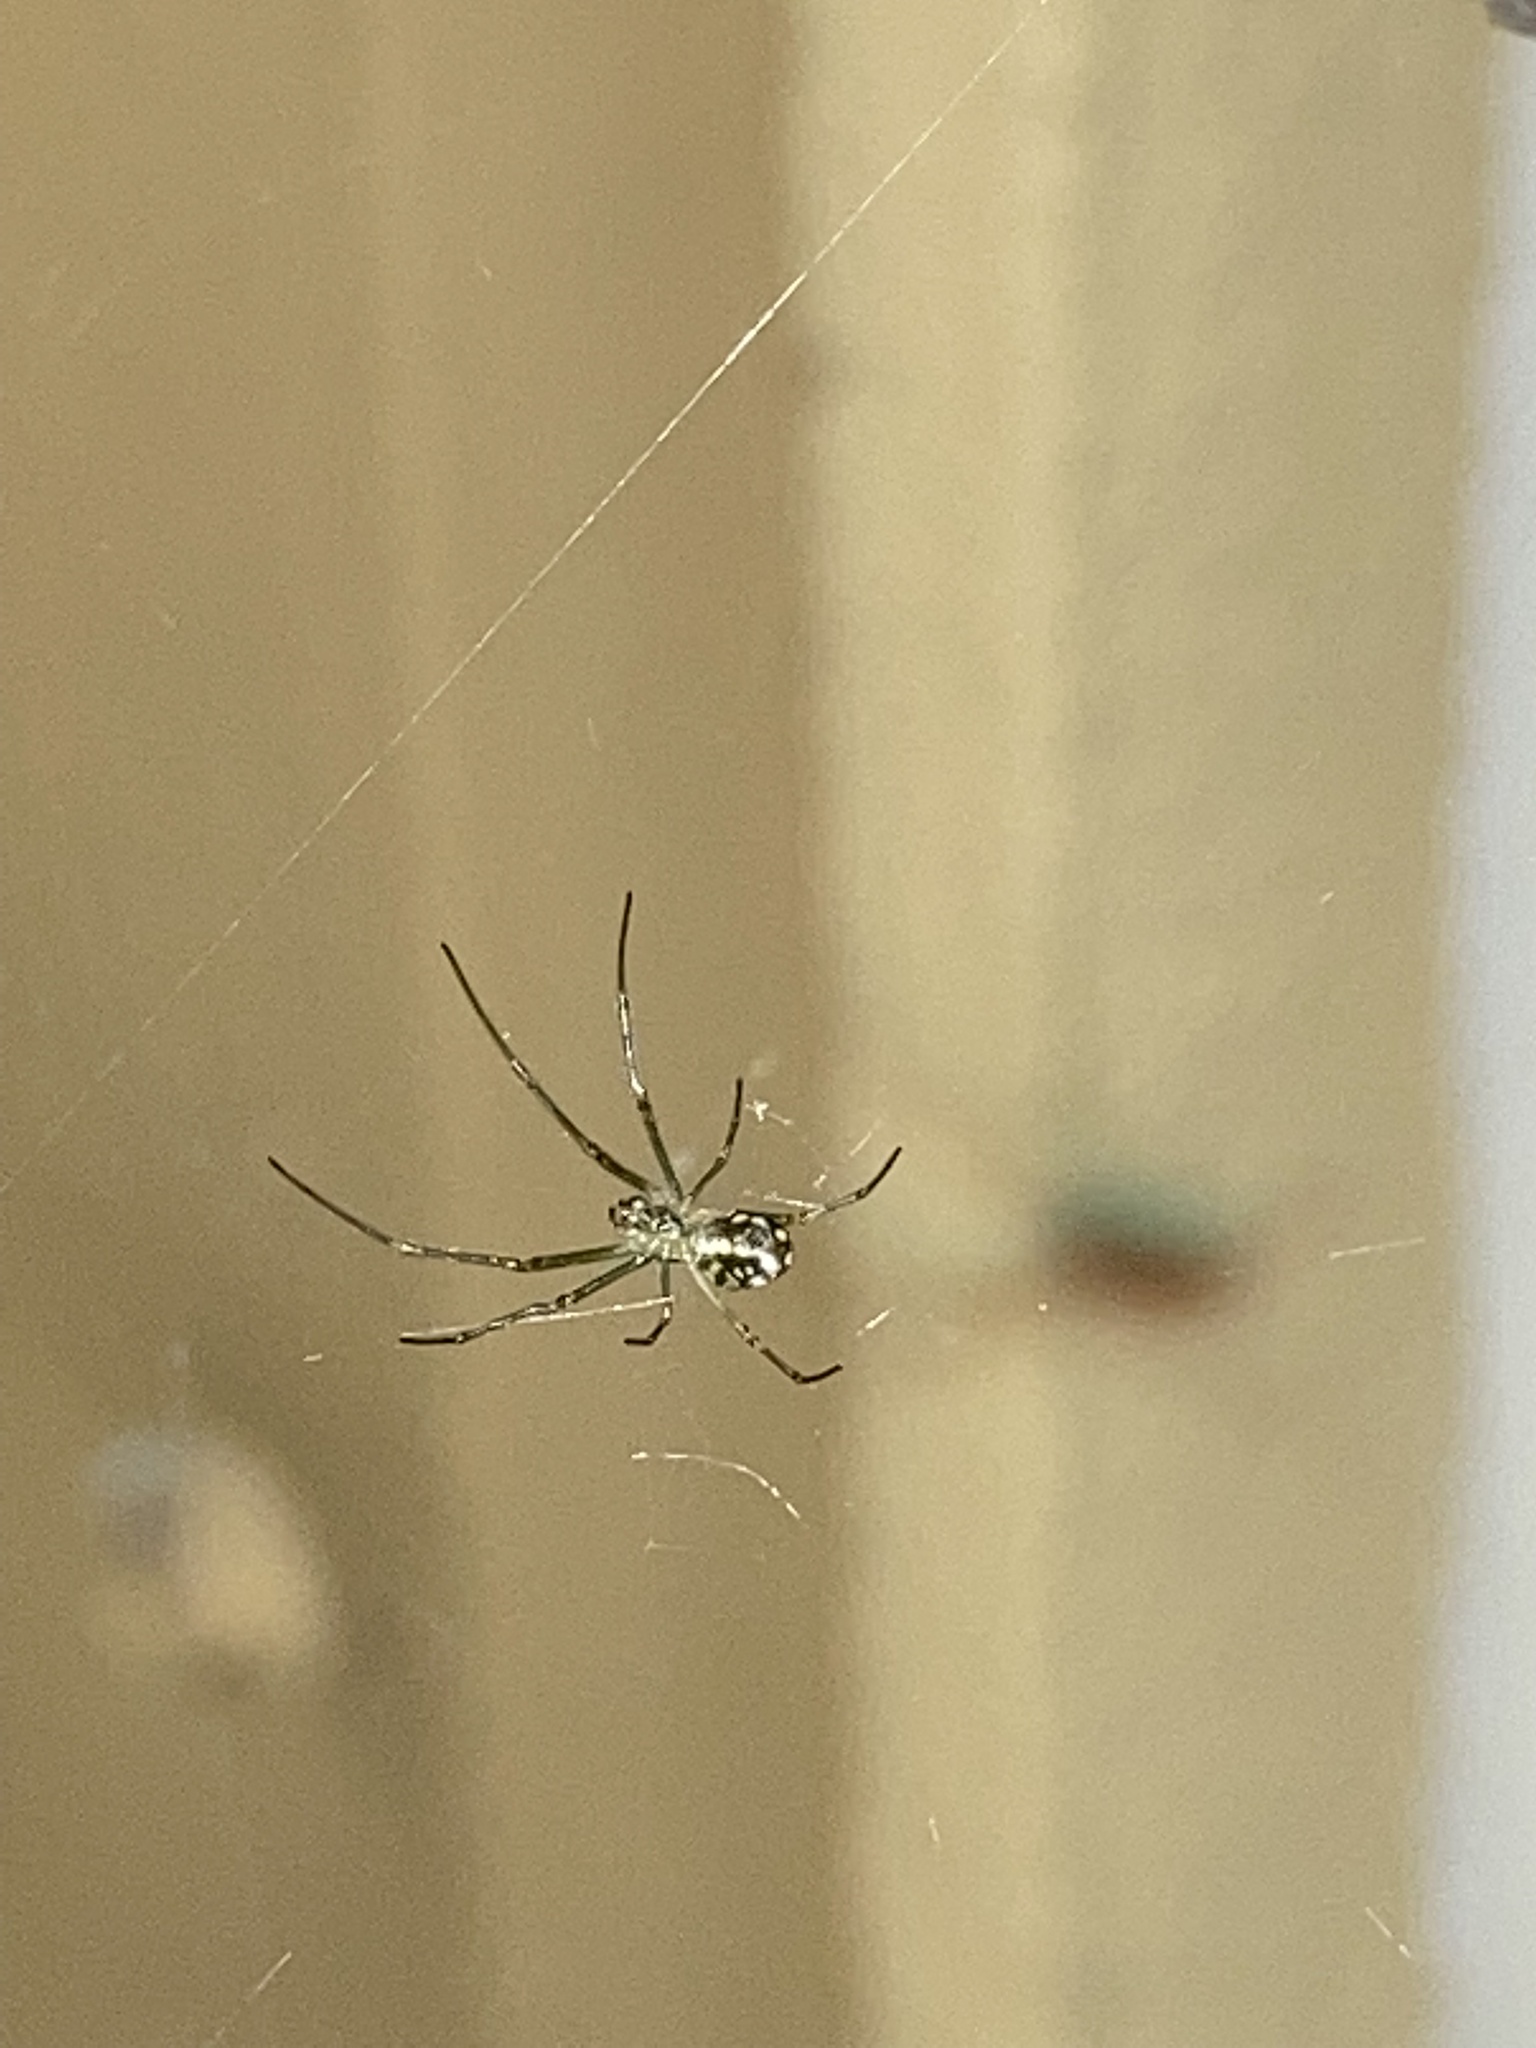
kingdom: Animalia
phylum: Arthropoda
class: Arachnida
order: Araneae
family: Tetragnathidae
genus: Leucauge
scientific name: Leucauge argyra
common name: Longjawed orb weavers
